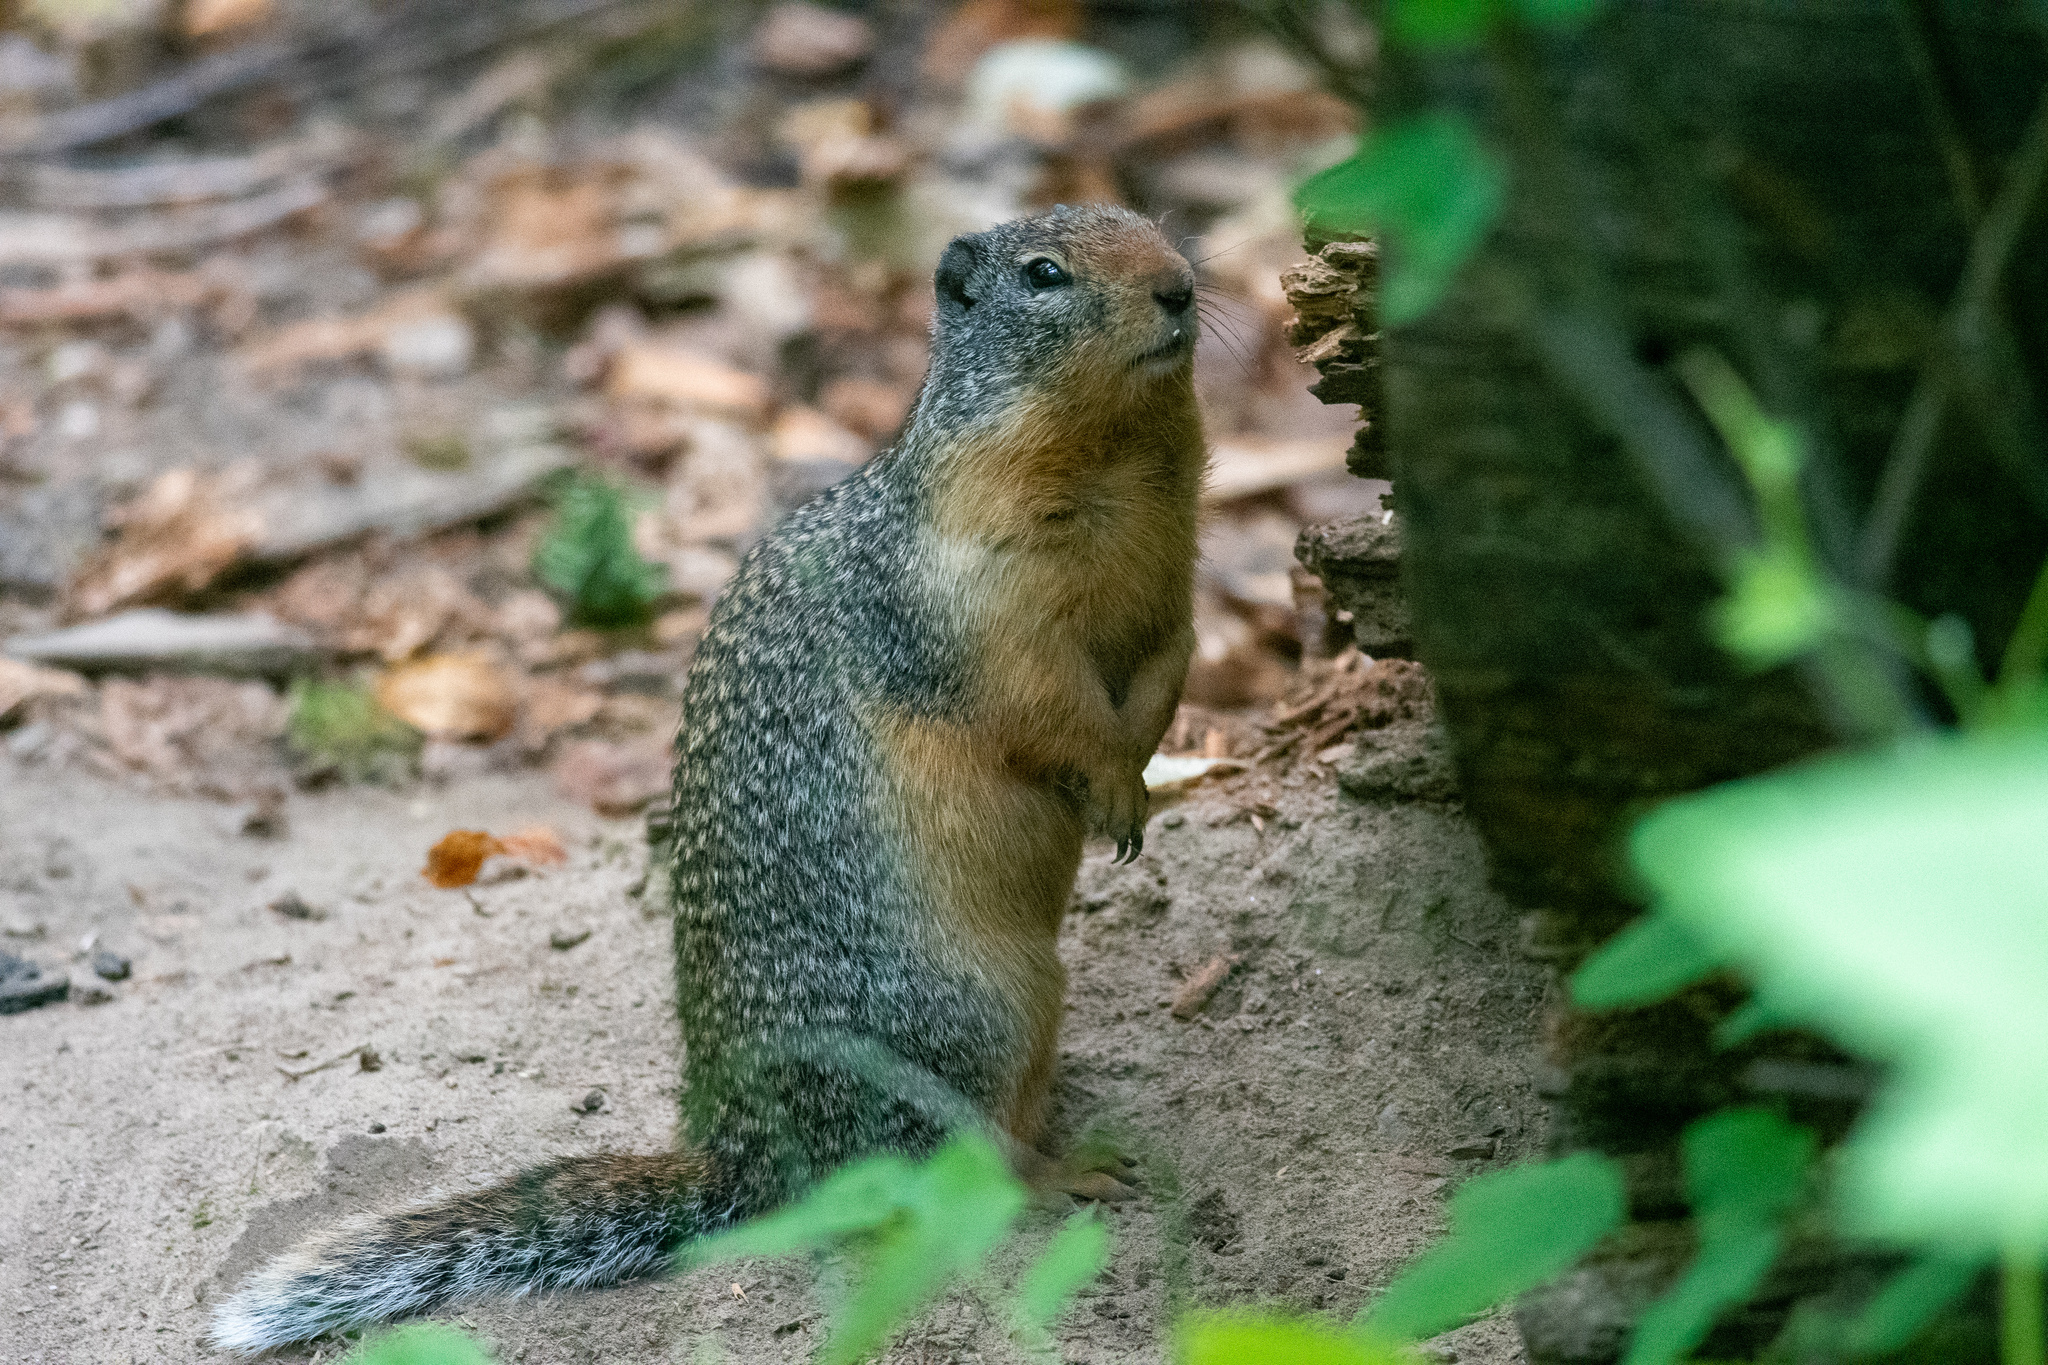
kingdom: Animalia
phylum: Chordata
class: Mammalia
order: Rodentia
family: Sciuridae
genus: Urocitellus
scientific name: Urocitellus columbianus
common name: Columbian ground squirrel
